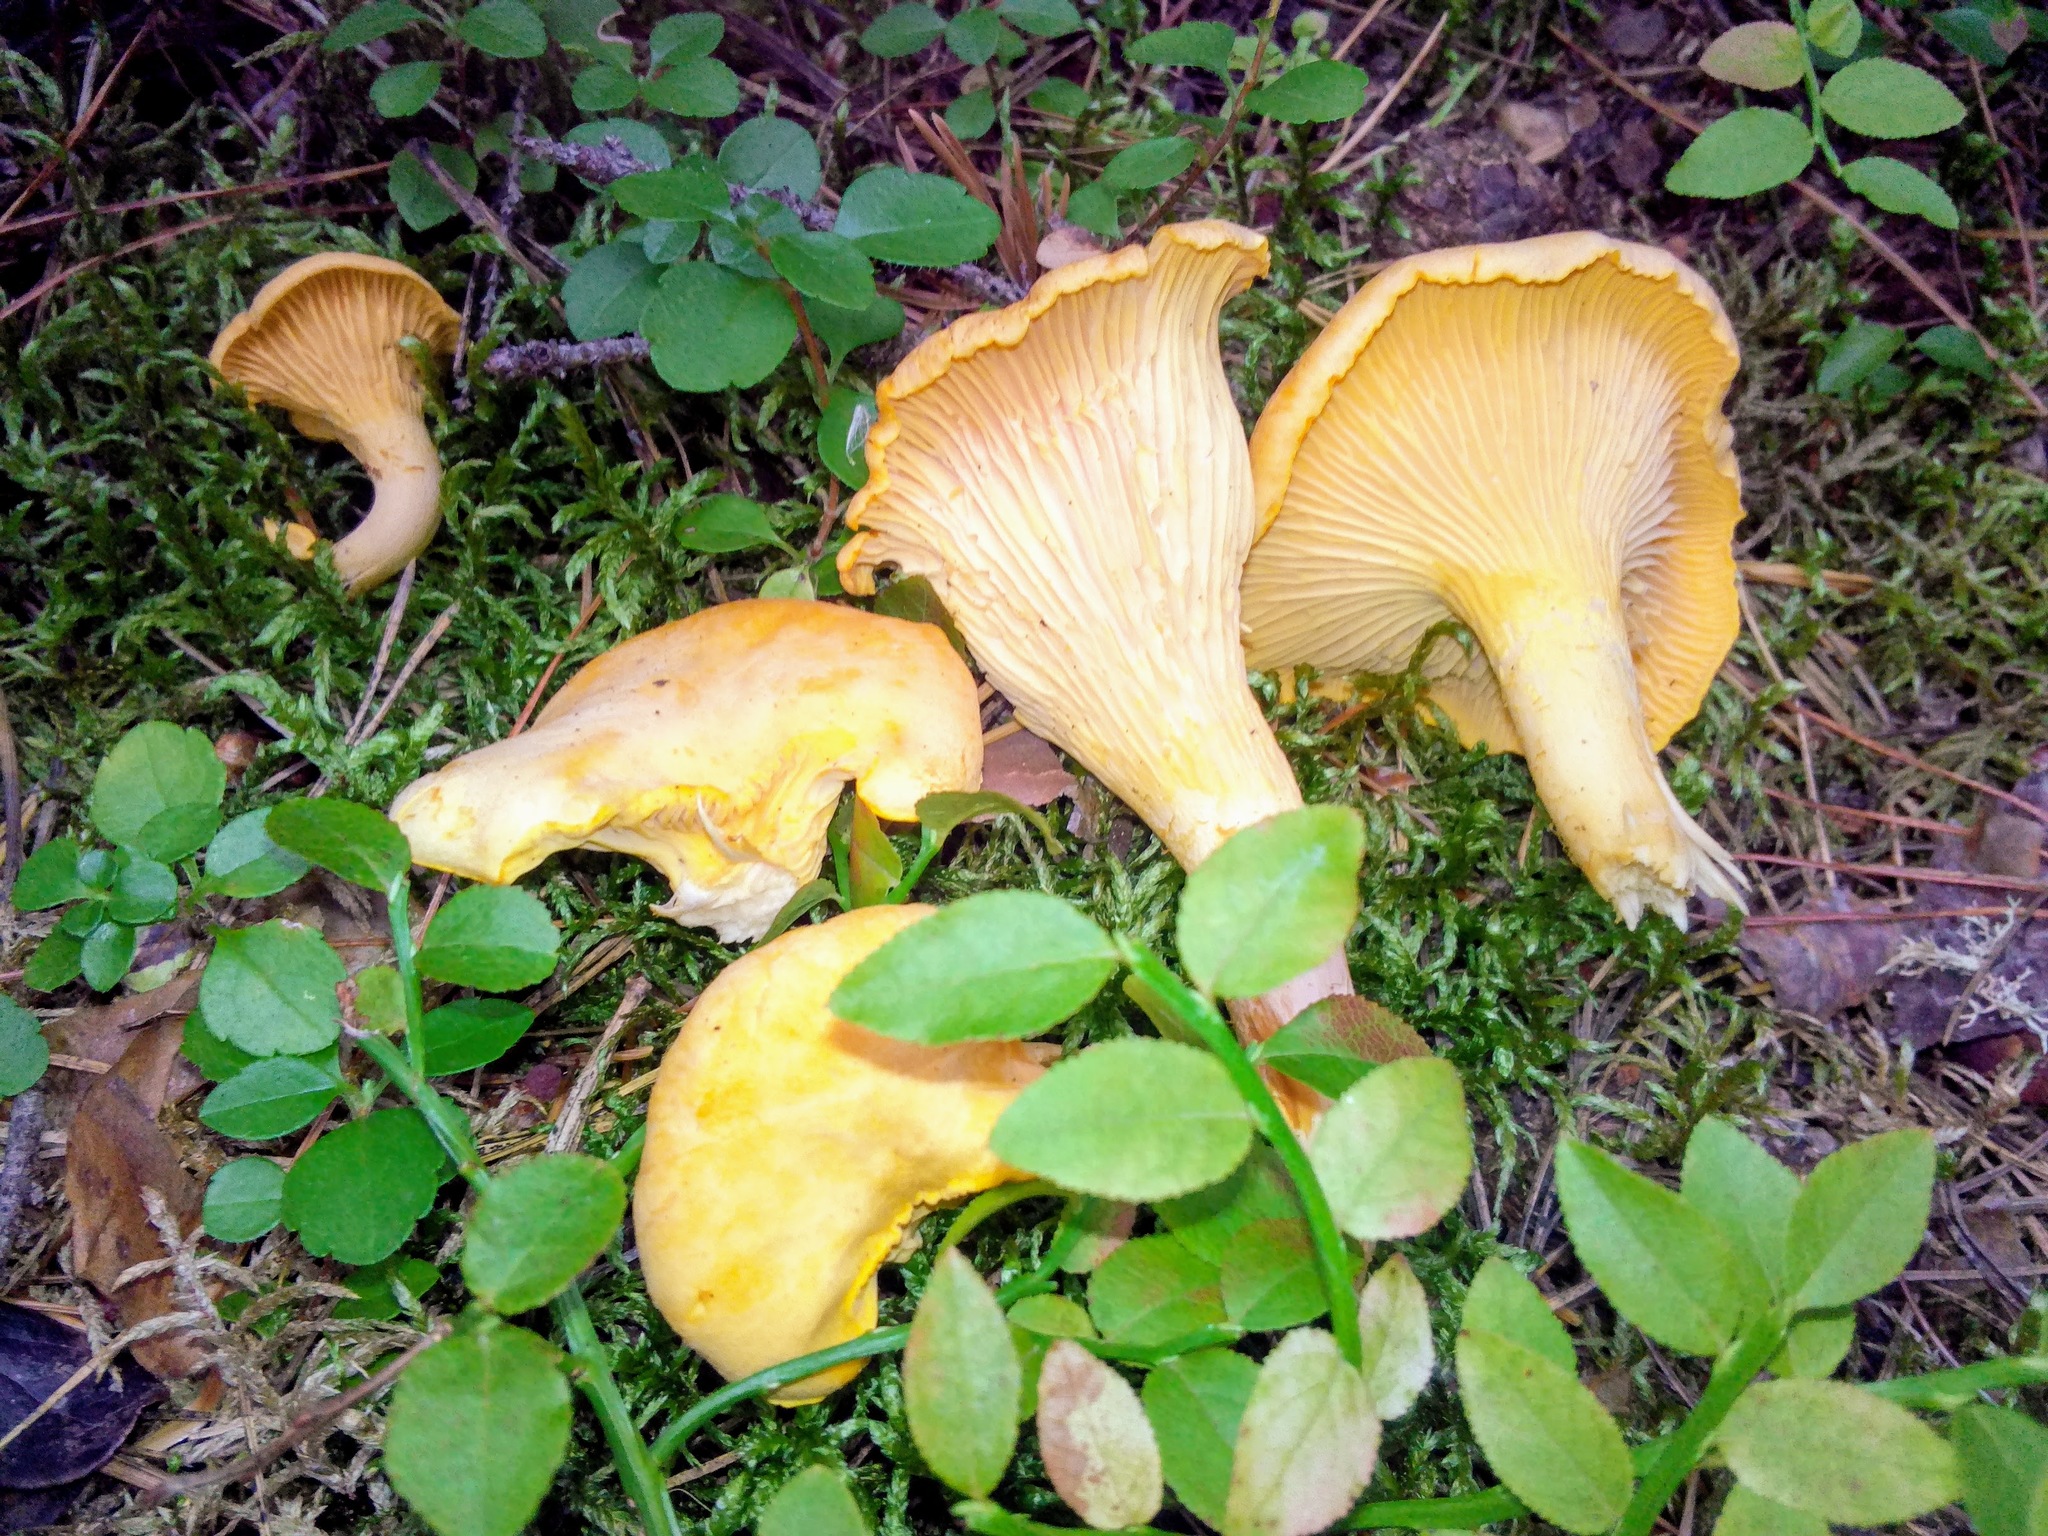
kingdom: Fungi
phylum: Basidiomycota
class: Agaricomycetes
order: Cantharellales
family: Hydnaceae
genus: Cantharellus
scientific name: Cantharellus cibarius
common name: Chanterelle
